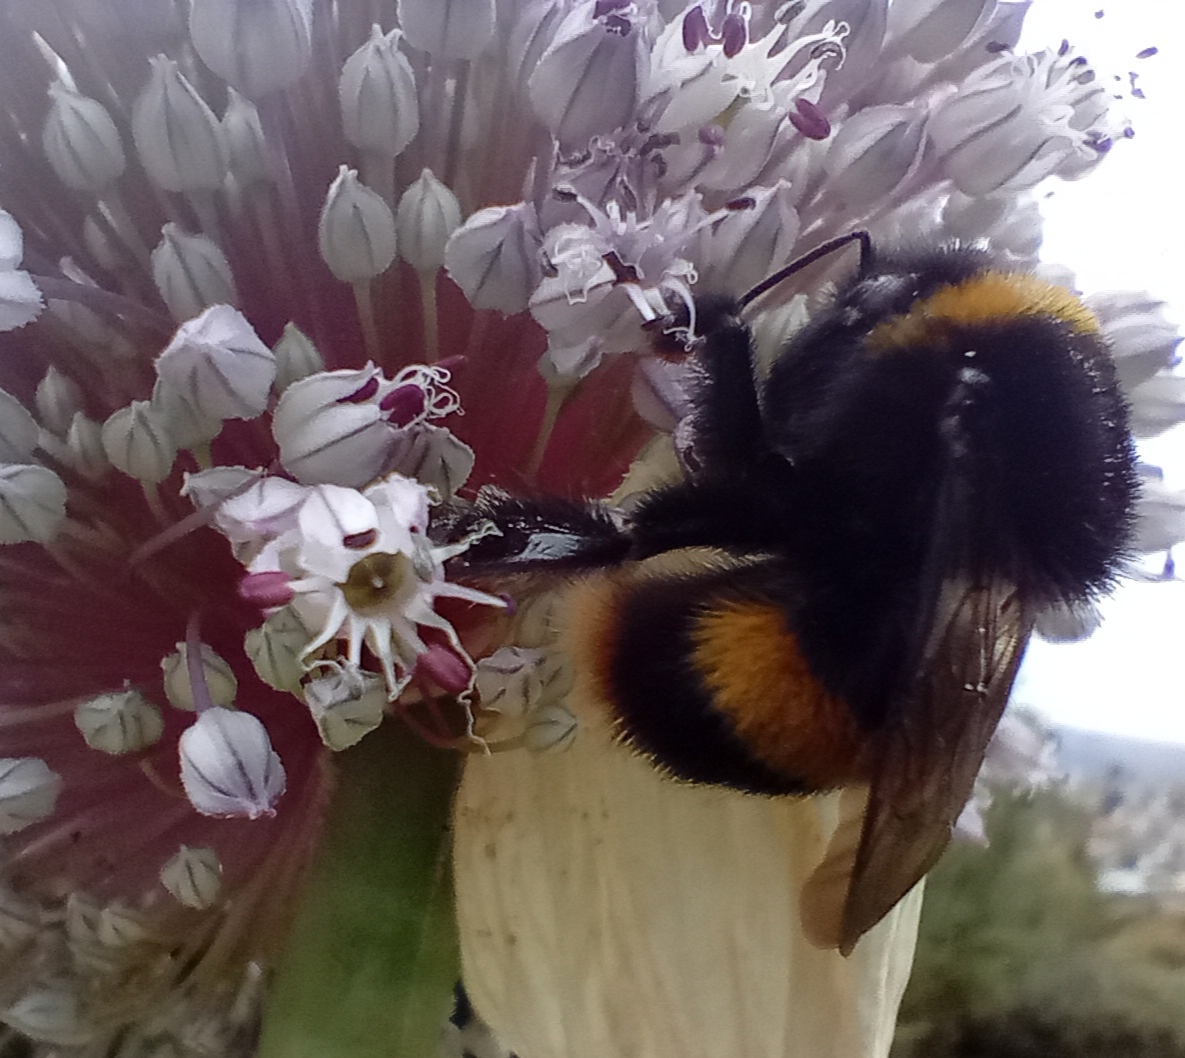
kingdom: Animalia
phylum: Arthropoda
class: Insecta
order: Hymenoptera
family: Apidae
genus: Bombus
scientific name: Bombus terrestris
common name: Buff-tailed bumblebee
